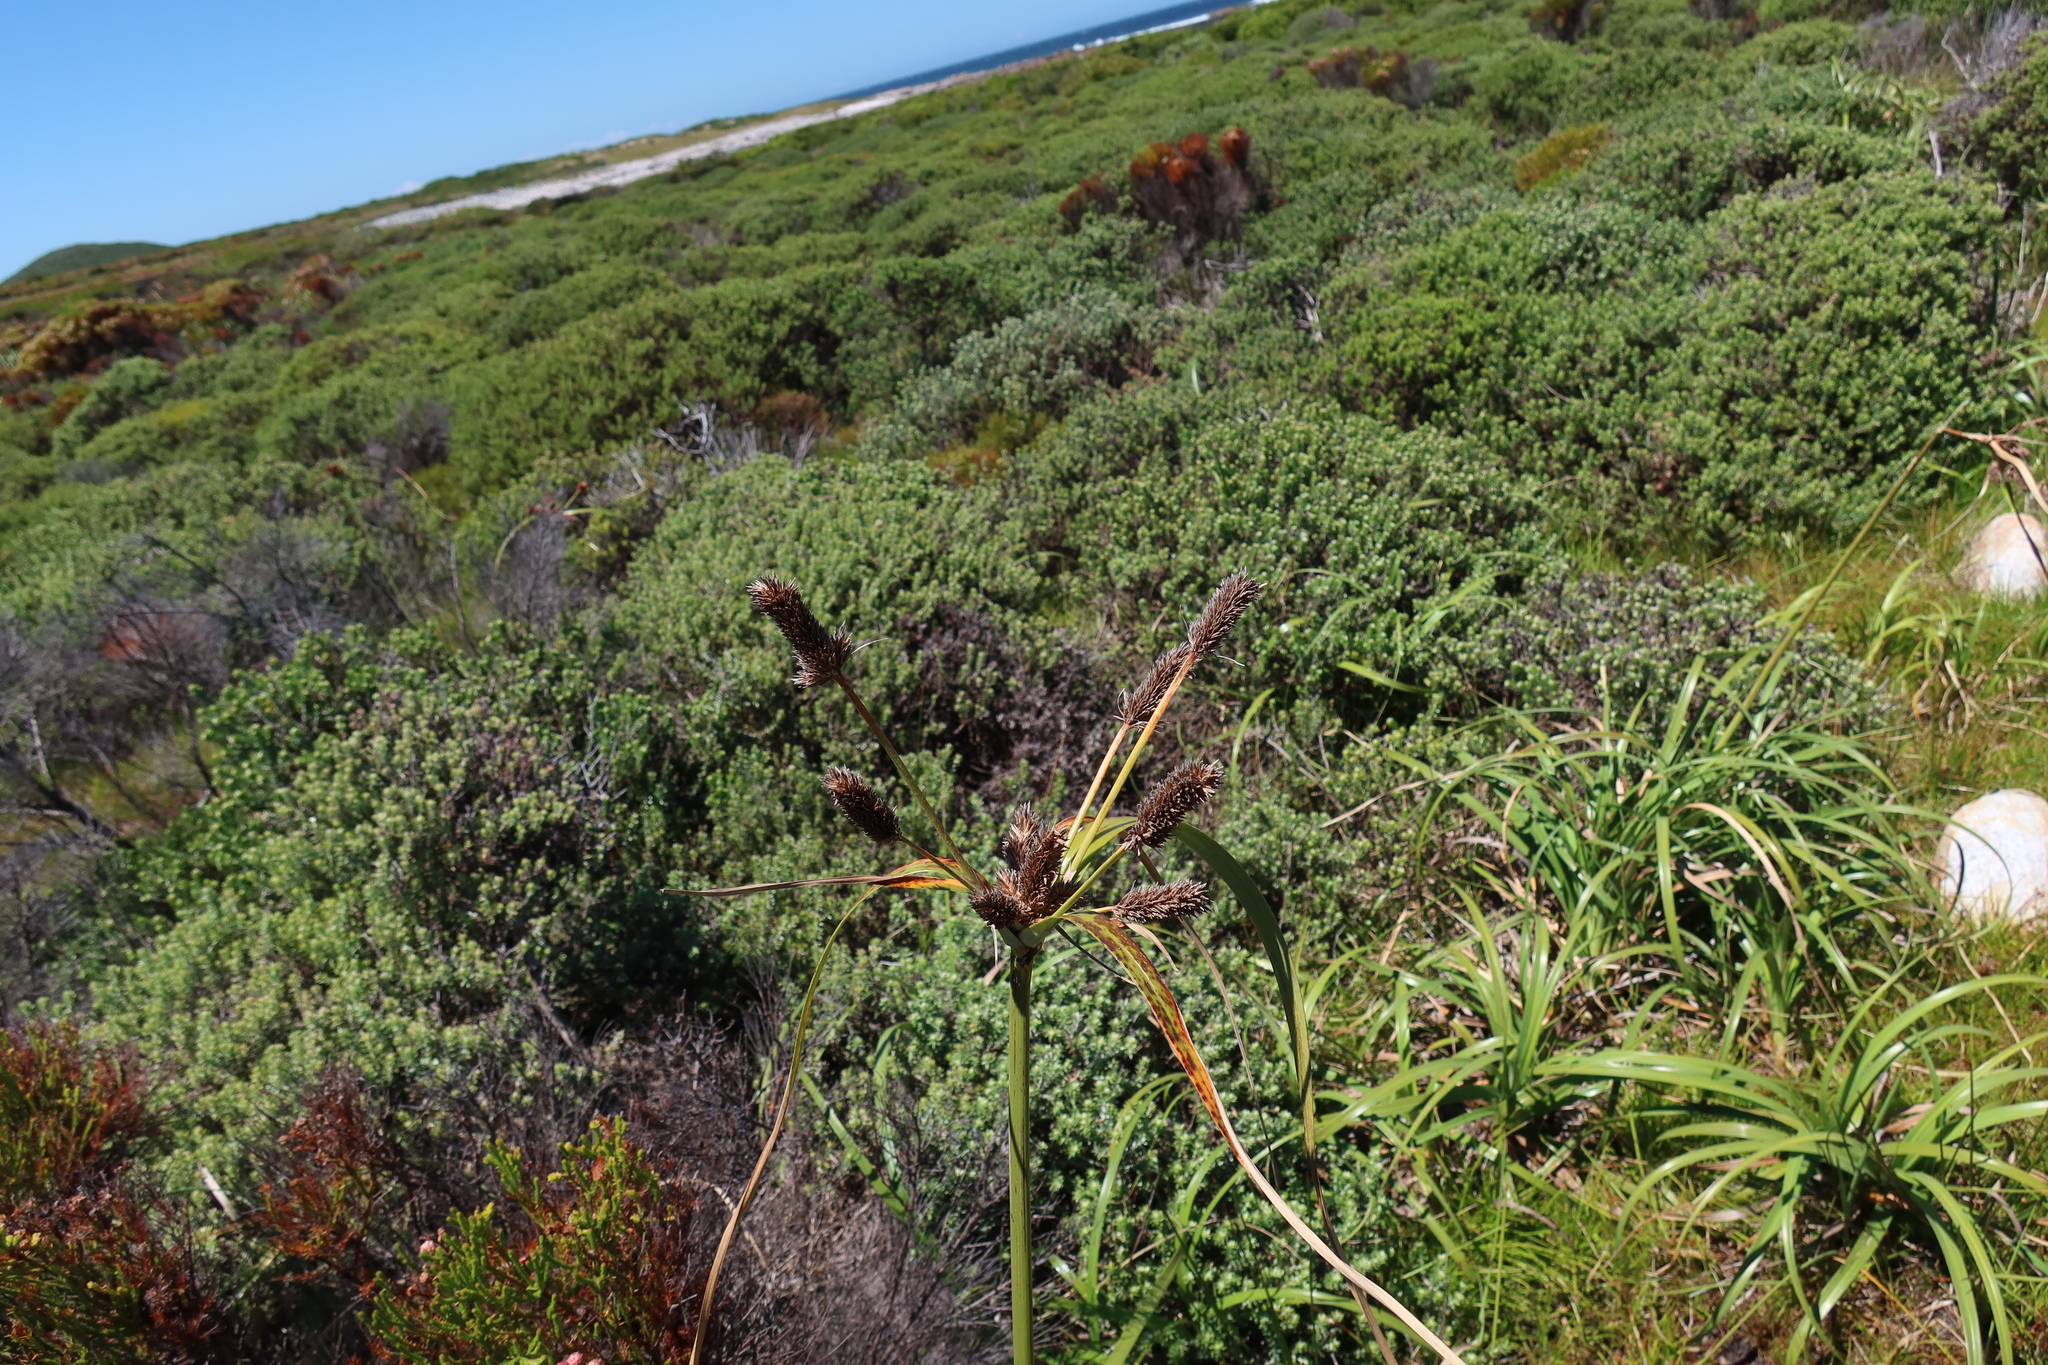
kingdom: Plantae
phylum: Tracheophyta
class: Liliopsida
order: Poales
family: Cyperaceae
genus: Cyperus
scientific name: Cyperus thunbergii
